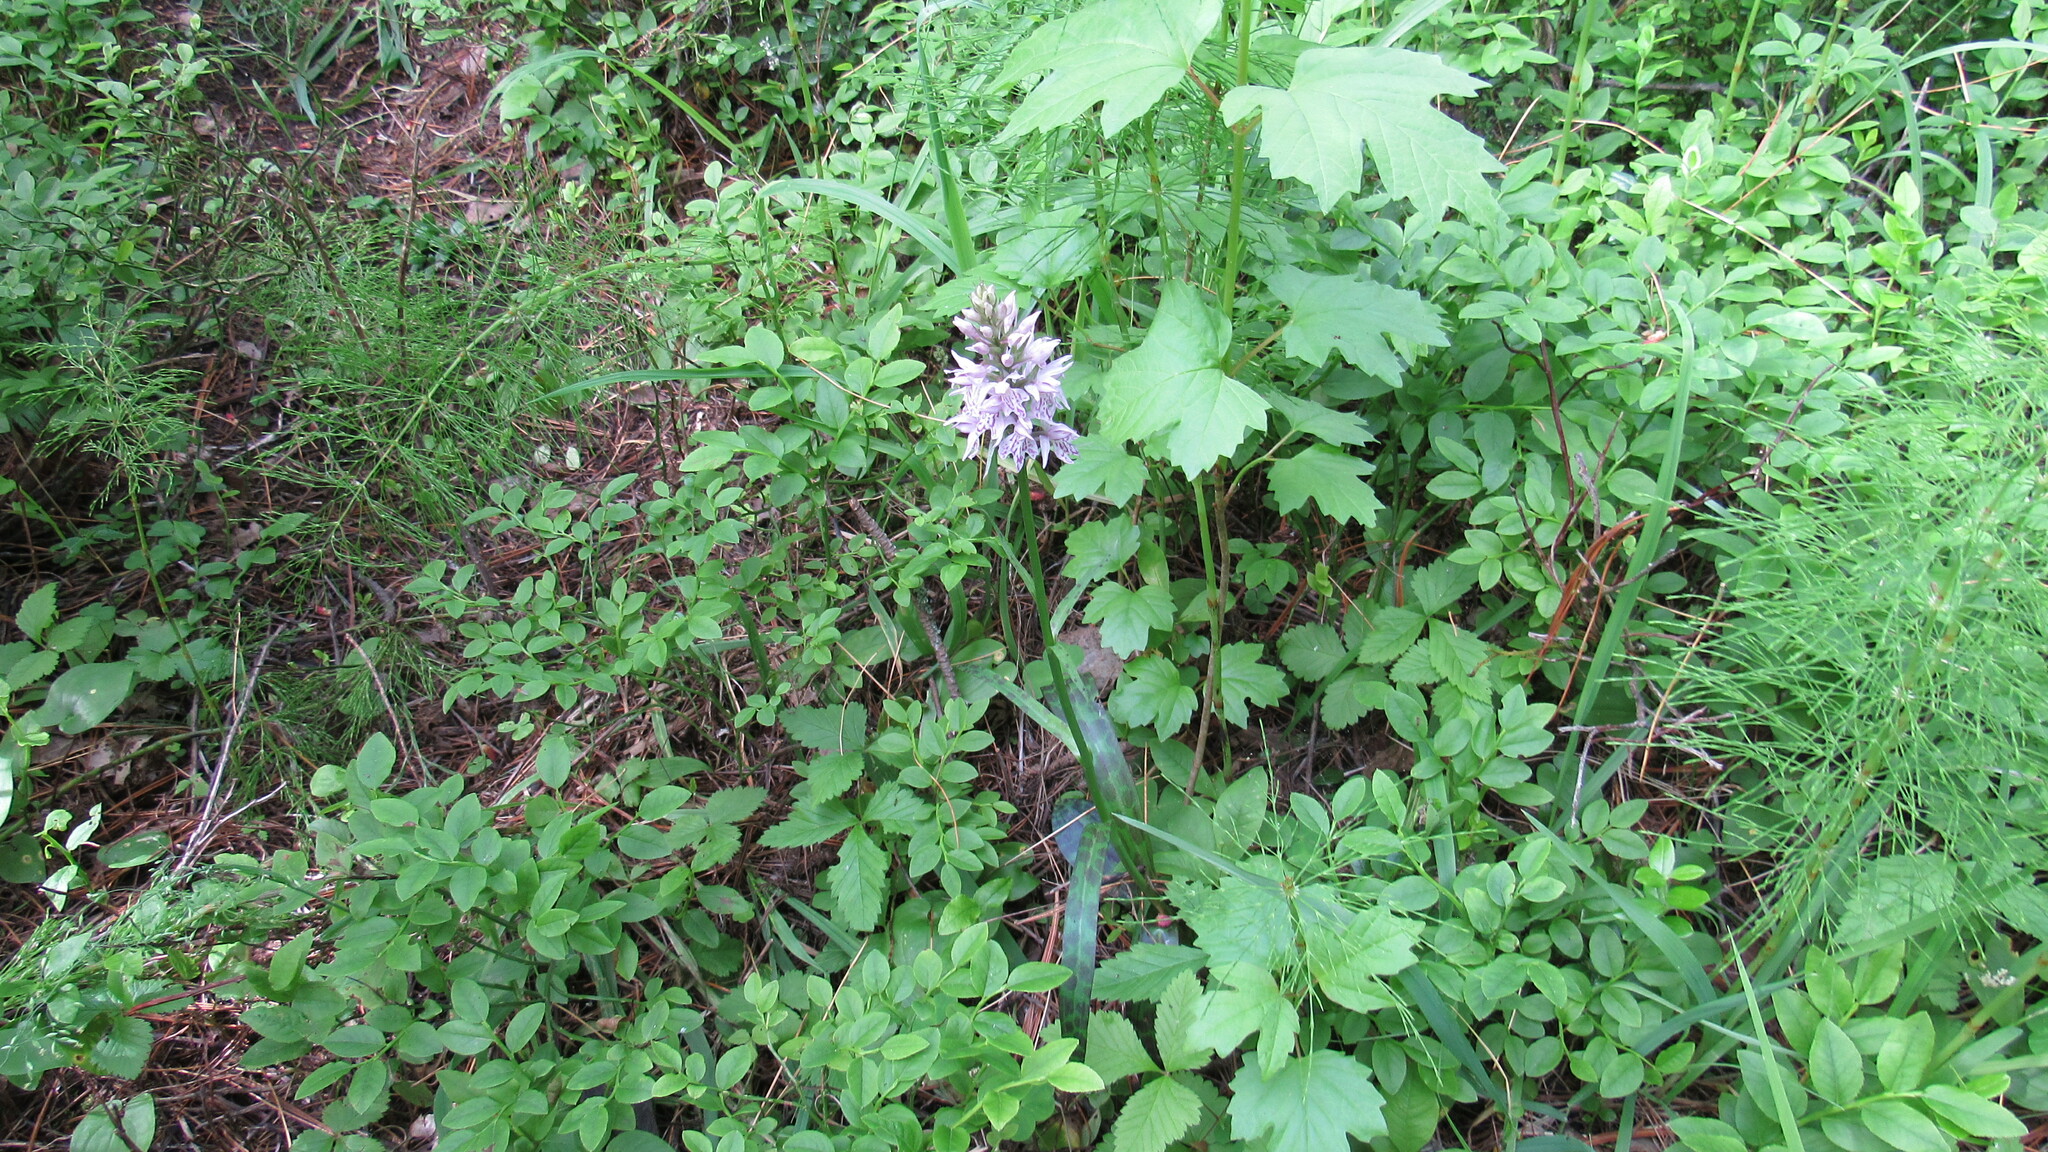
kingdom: Plantae
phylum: Tracheophyta
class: Liliopsida
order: Asparagales
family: Orchidaceae
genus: Dactylorhiza
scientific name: Dactylorhiza maculata
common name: Heath spotted-orchid
